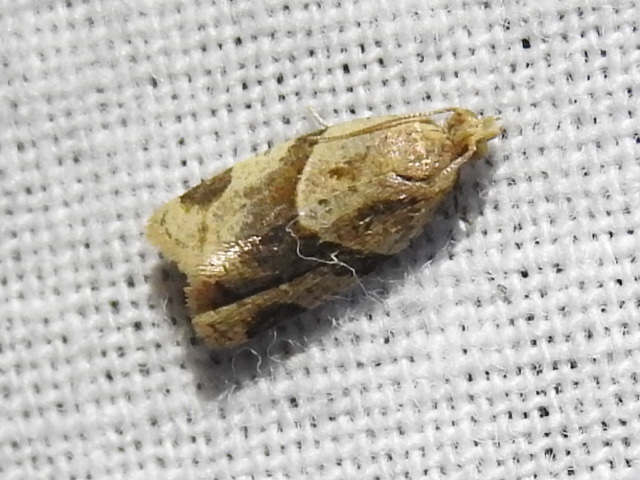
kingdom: Animalia
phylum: Arthropoda
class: Insecta
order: Lepidoptera
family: Tortricidae
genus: Clepsis
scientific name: Clepsis peritana
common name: Garden tortrix
